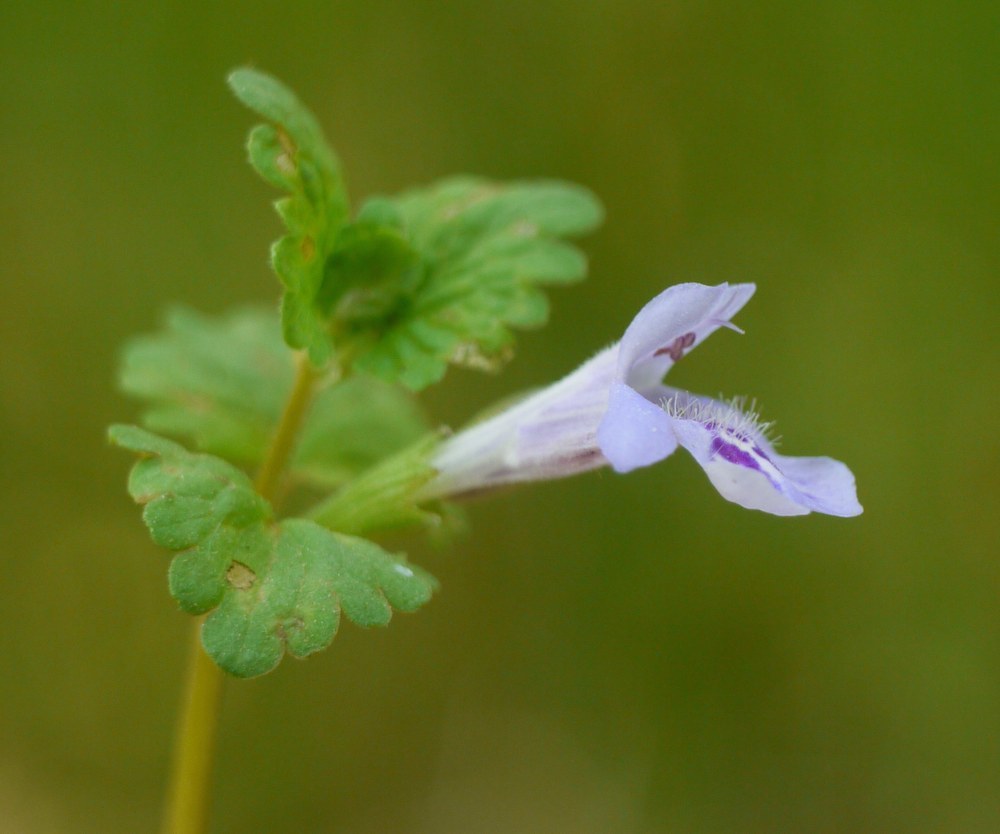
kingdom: Plantae
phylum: Tracheophyta
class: Magnoliopsida
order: Lamiales
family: Lamiaceae
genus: Glechoma
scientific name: Glechoma hederacea
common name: Ground ivy
